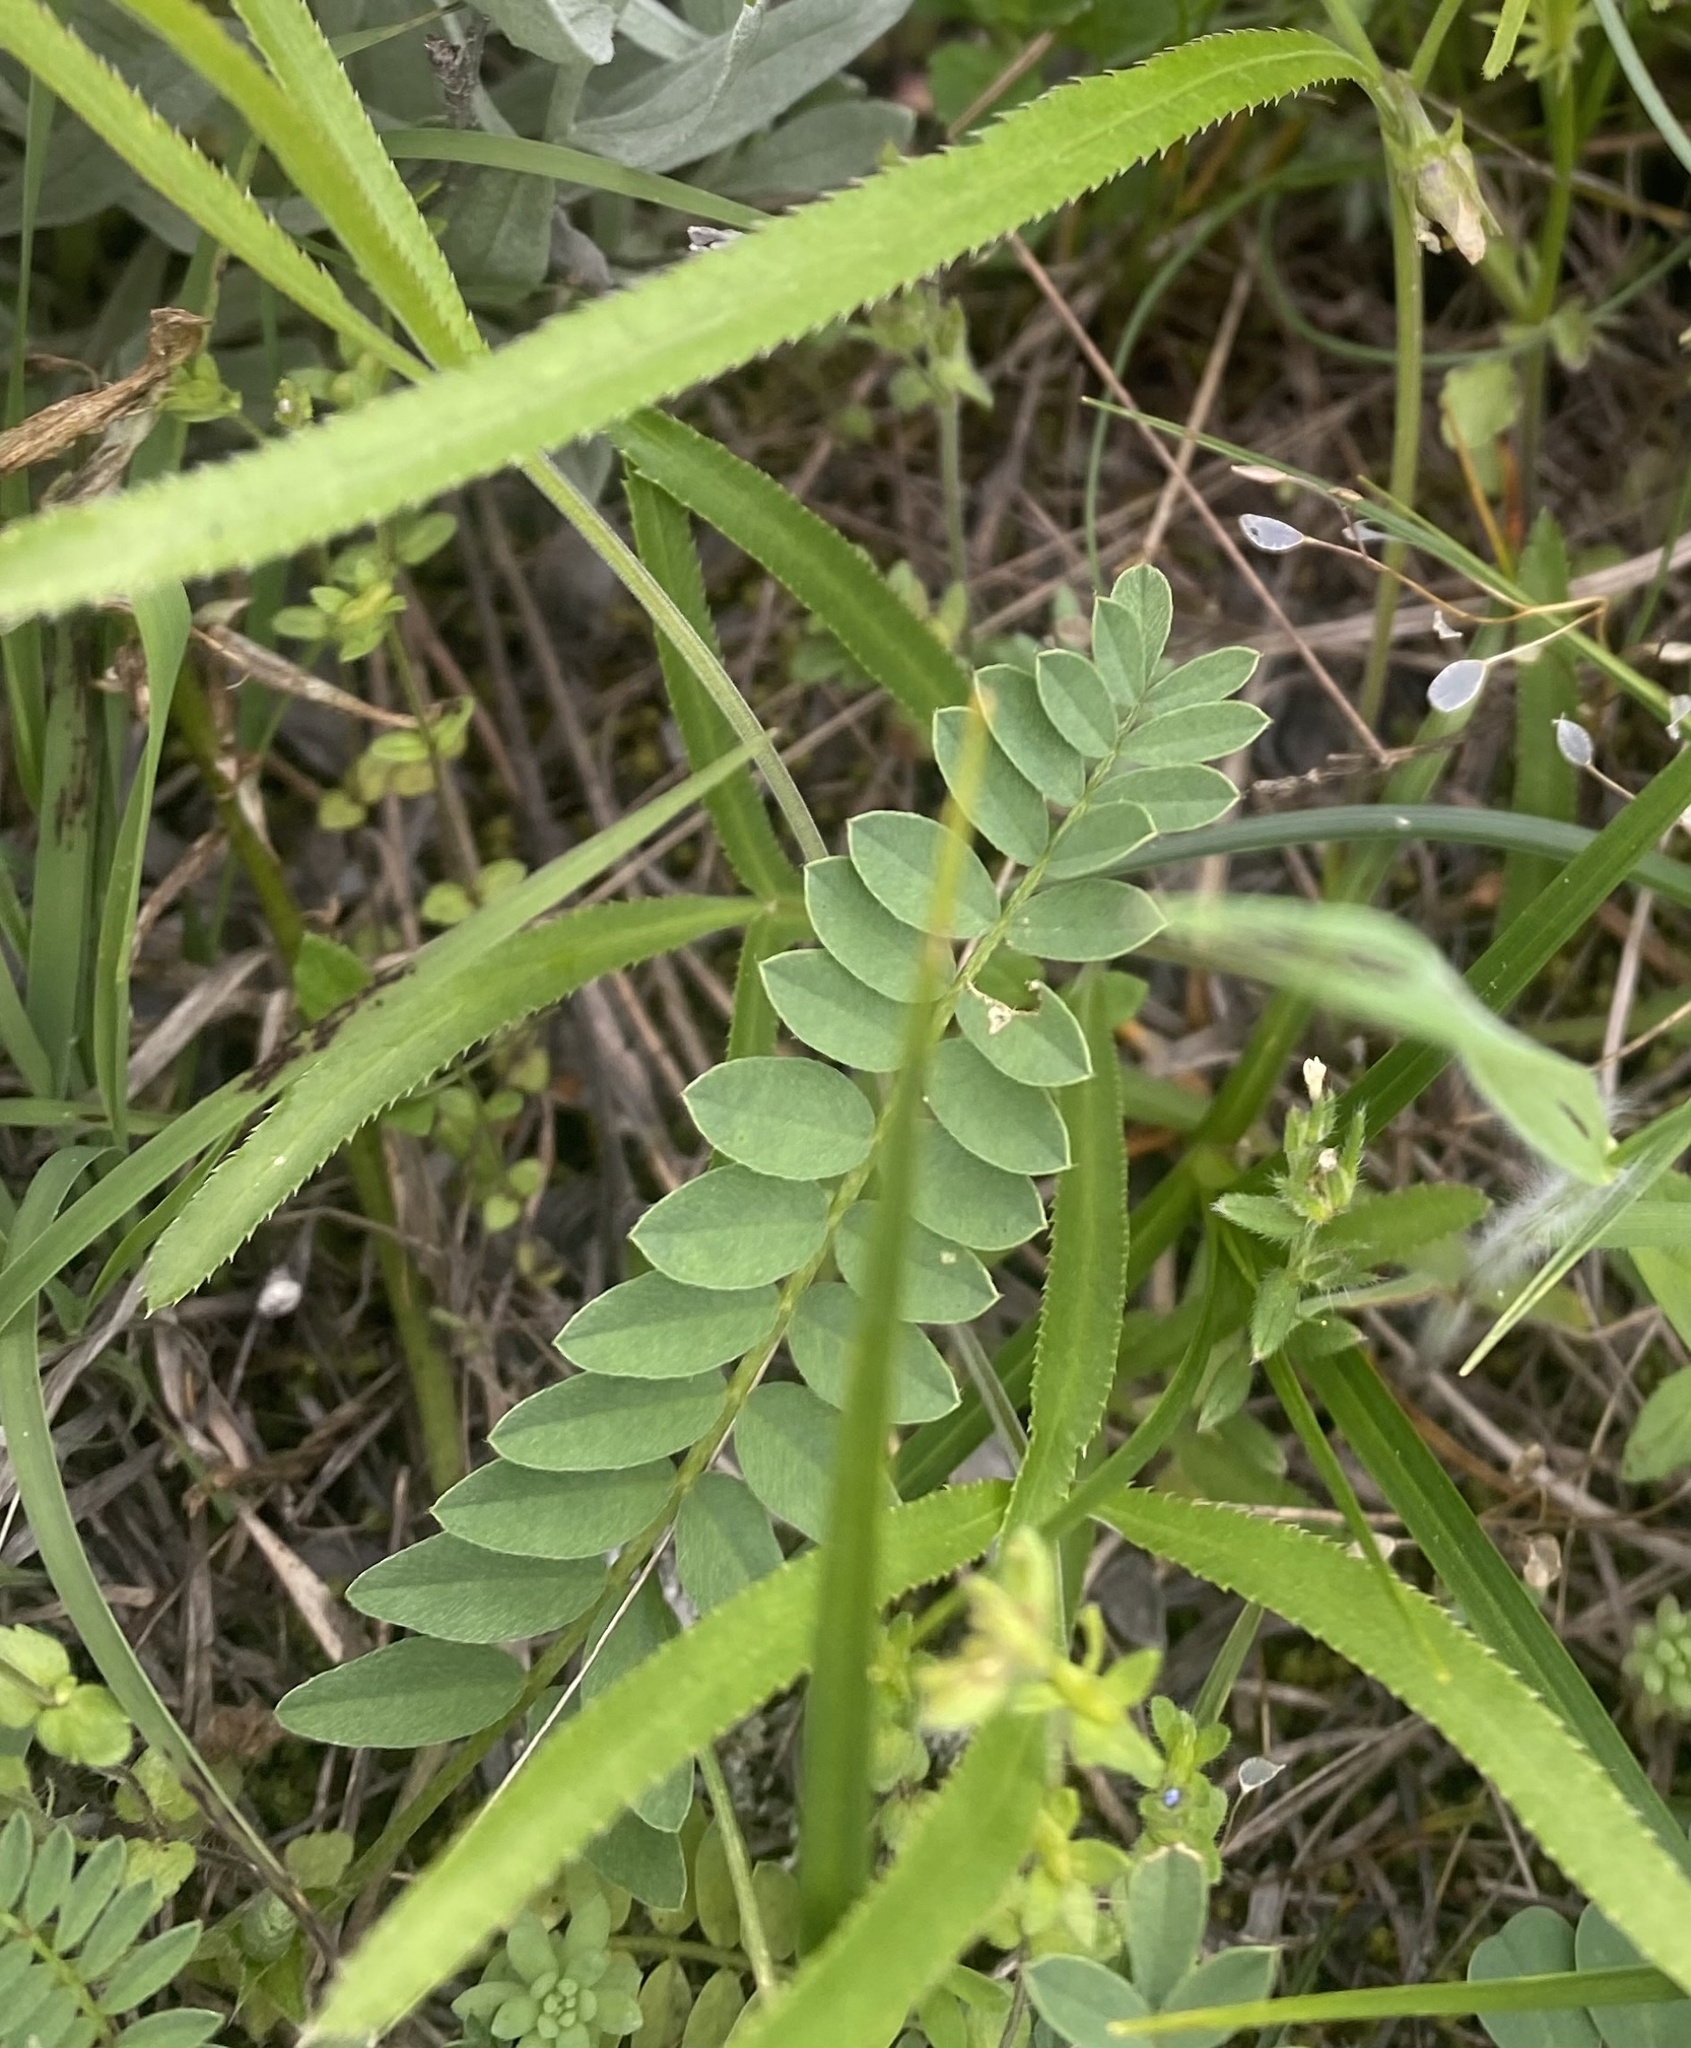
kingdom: Plantae
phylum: Tracheophyta
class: Magnoliopsida
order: Apiales
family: Apiaceae
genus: Falcaria
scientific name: Falcaria vulgaris
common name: Longleaf
